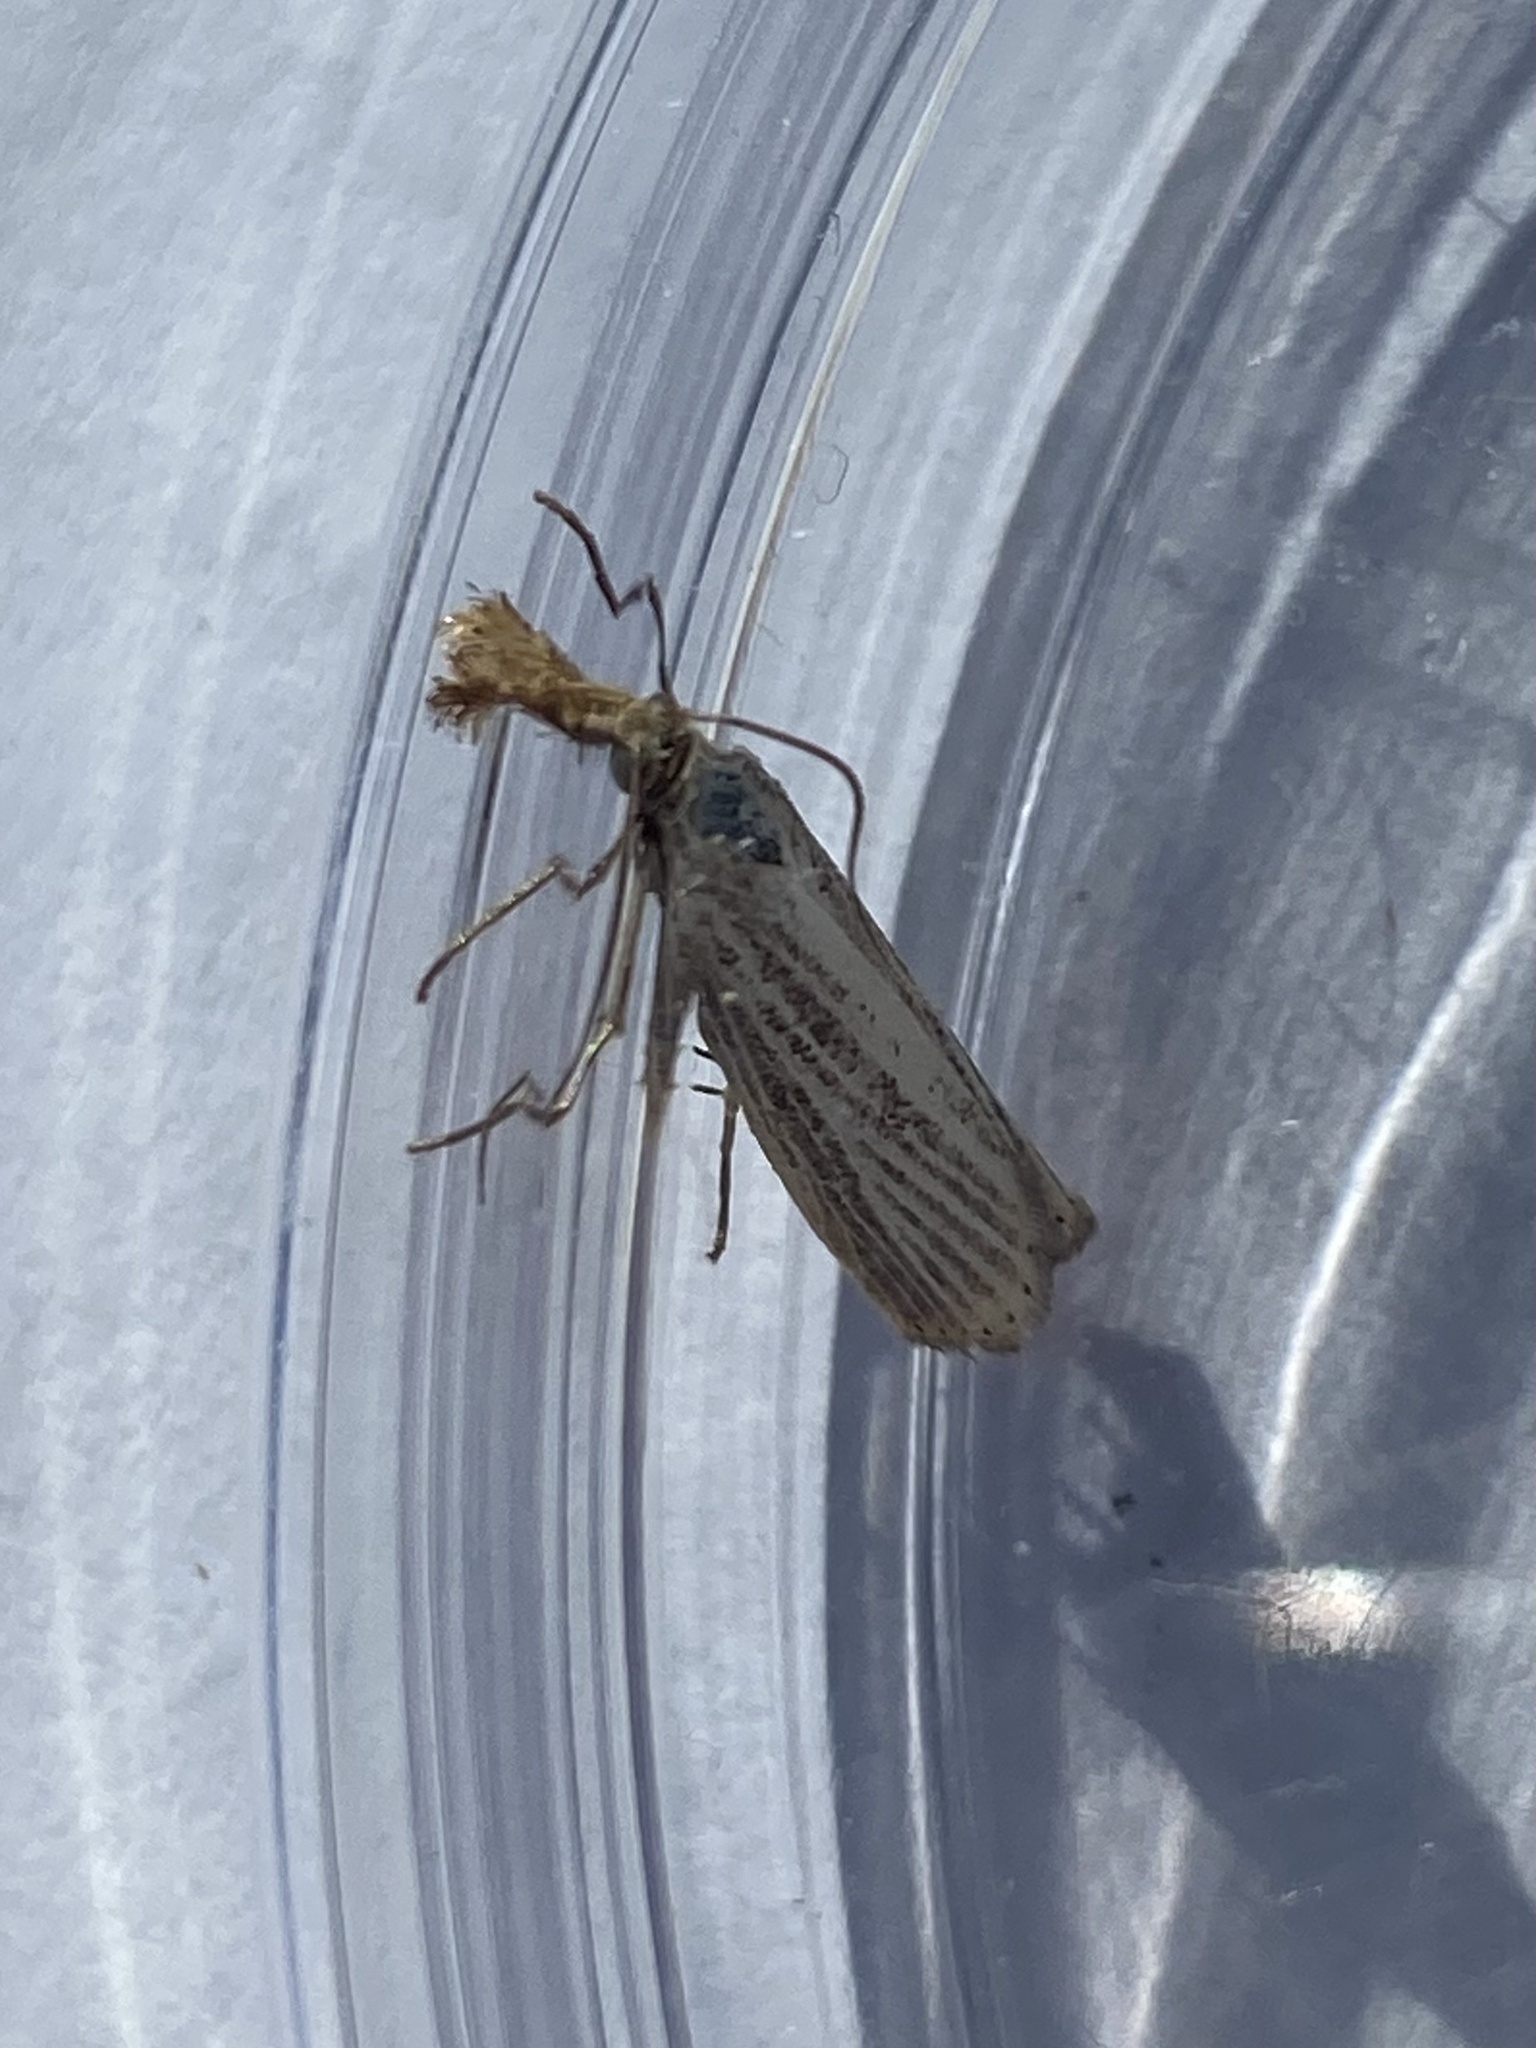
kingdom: Animalia
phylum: Arthropoda
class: Insecta
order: Lepidoptera
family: Crambidae
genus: Agriphila
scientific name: Agriphila vulgivagellus
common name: Vagabond crambus moth
